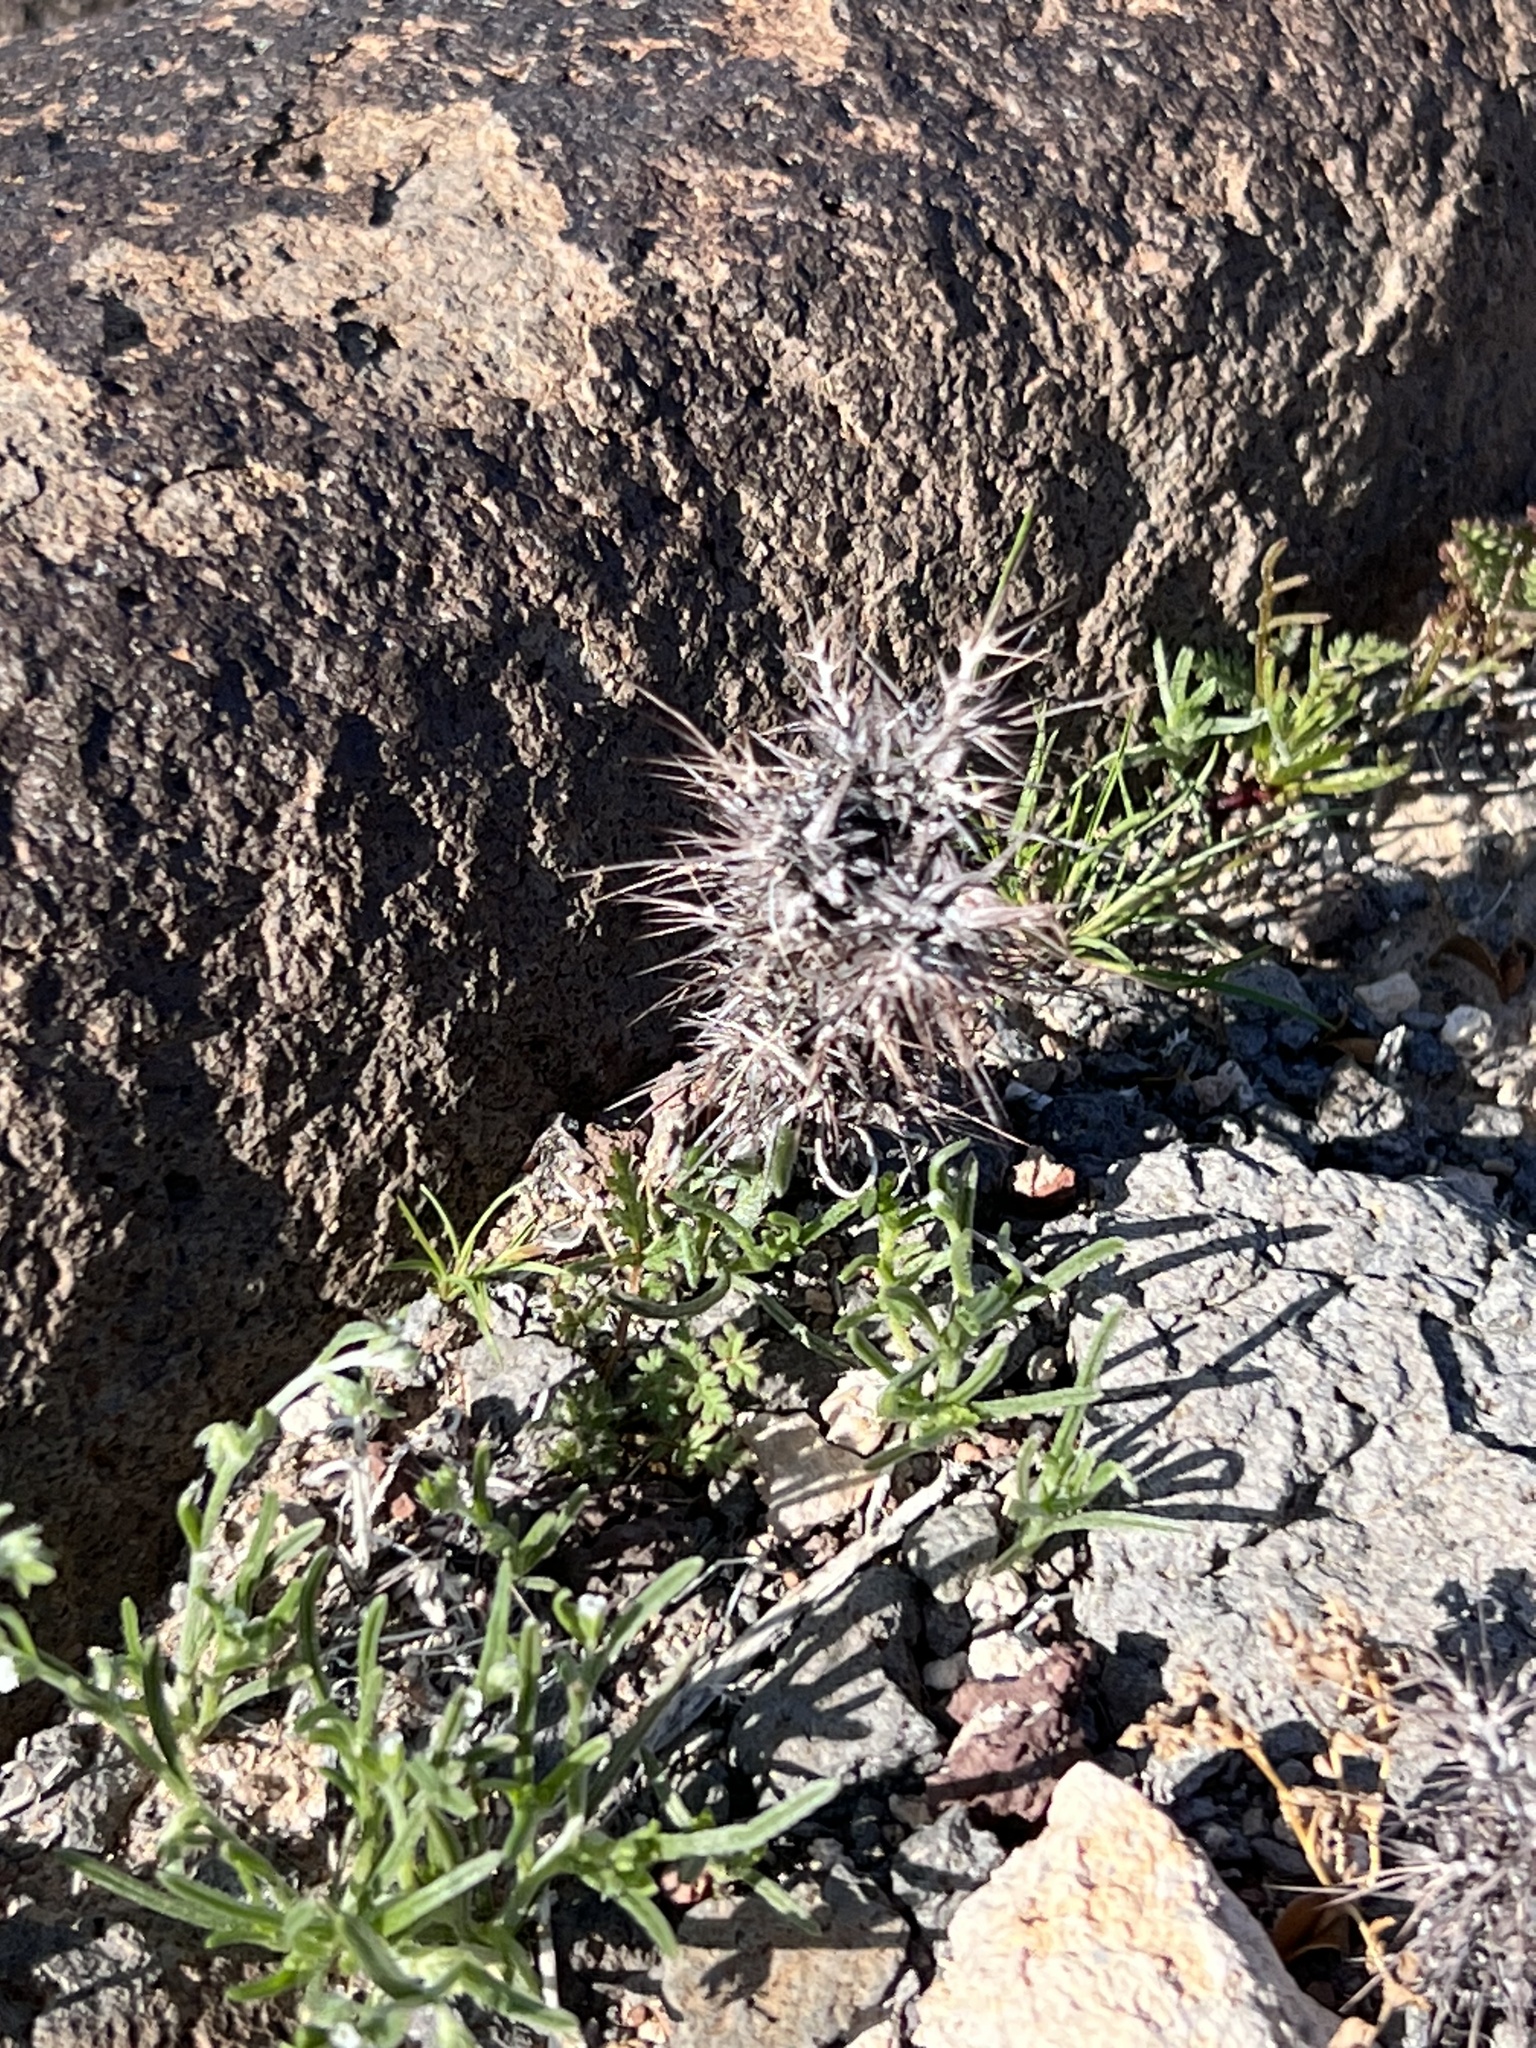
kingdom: Plantae
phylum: Tracheophyta
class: Magnoliopsida
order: Caryophyllales
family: Polygonaceae
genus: Chorizanthe
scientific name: Chorizanthe rigida
